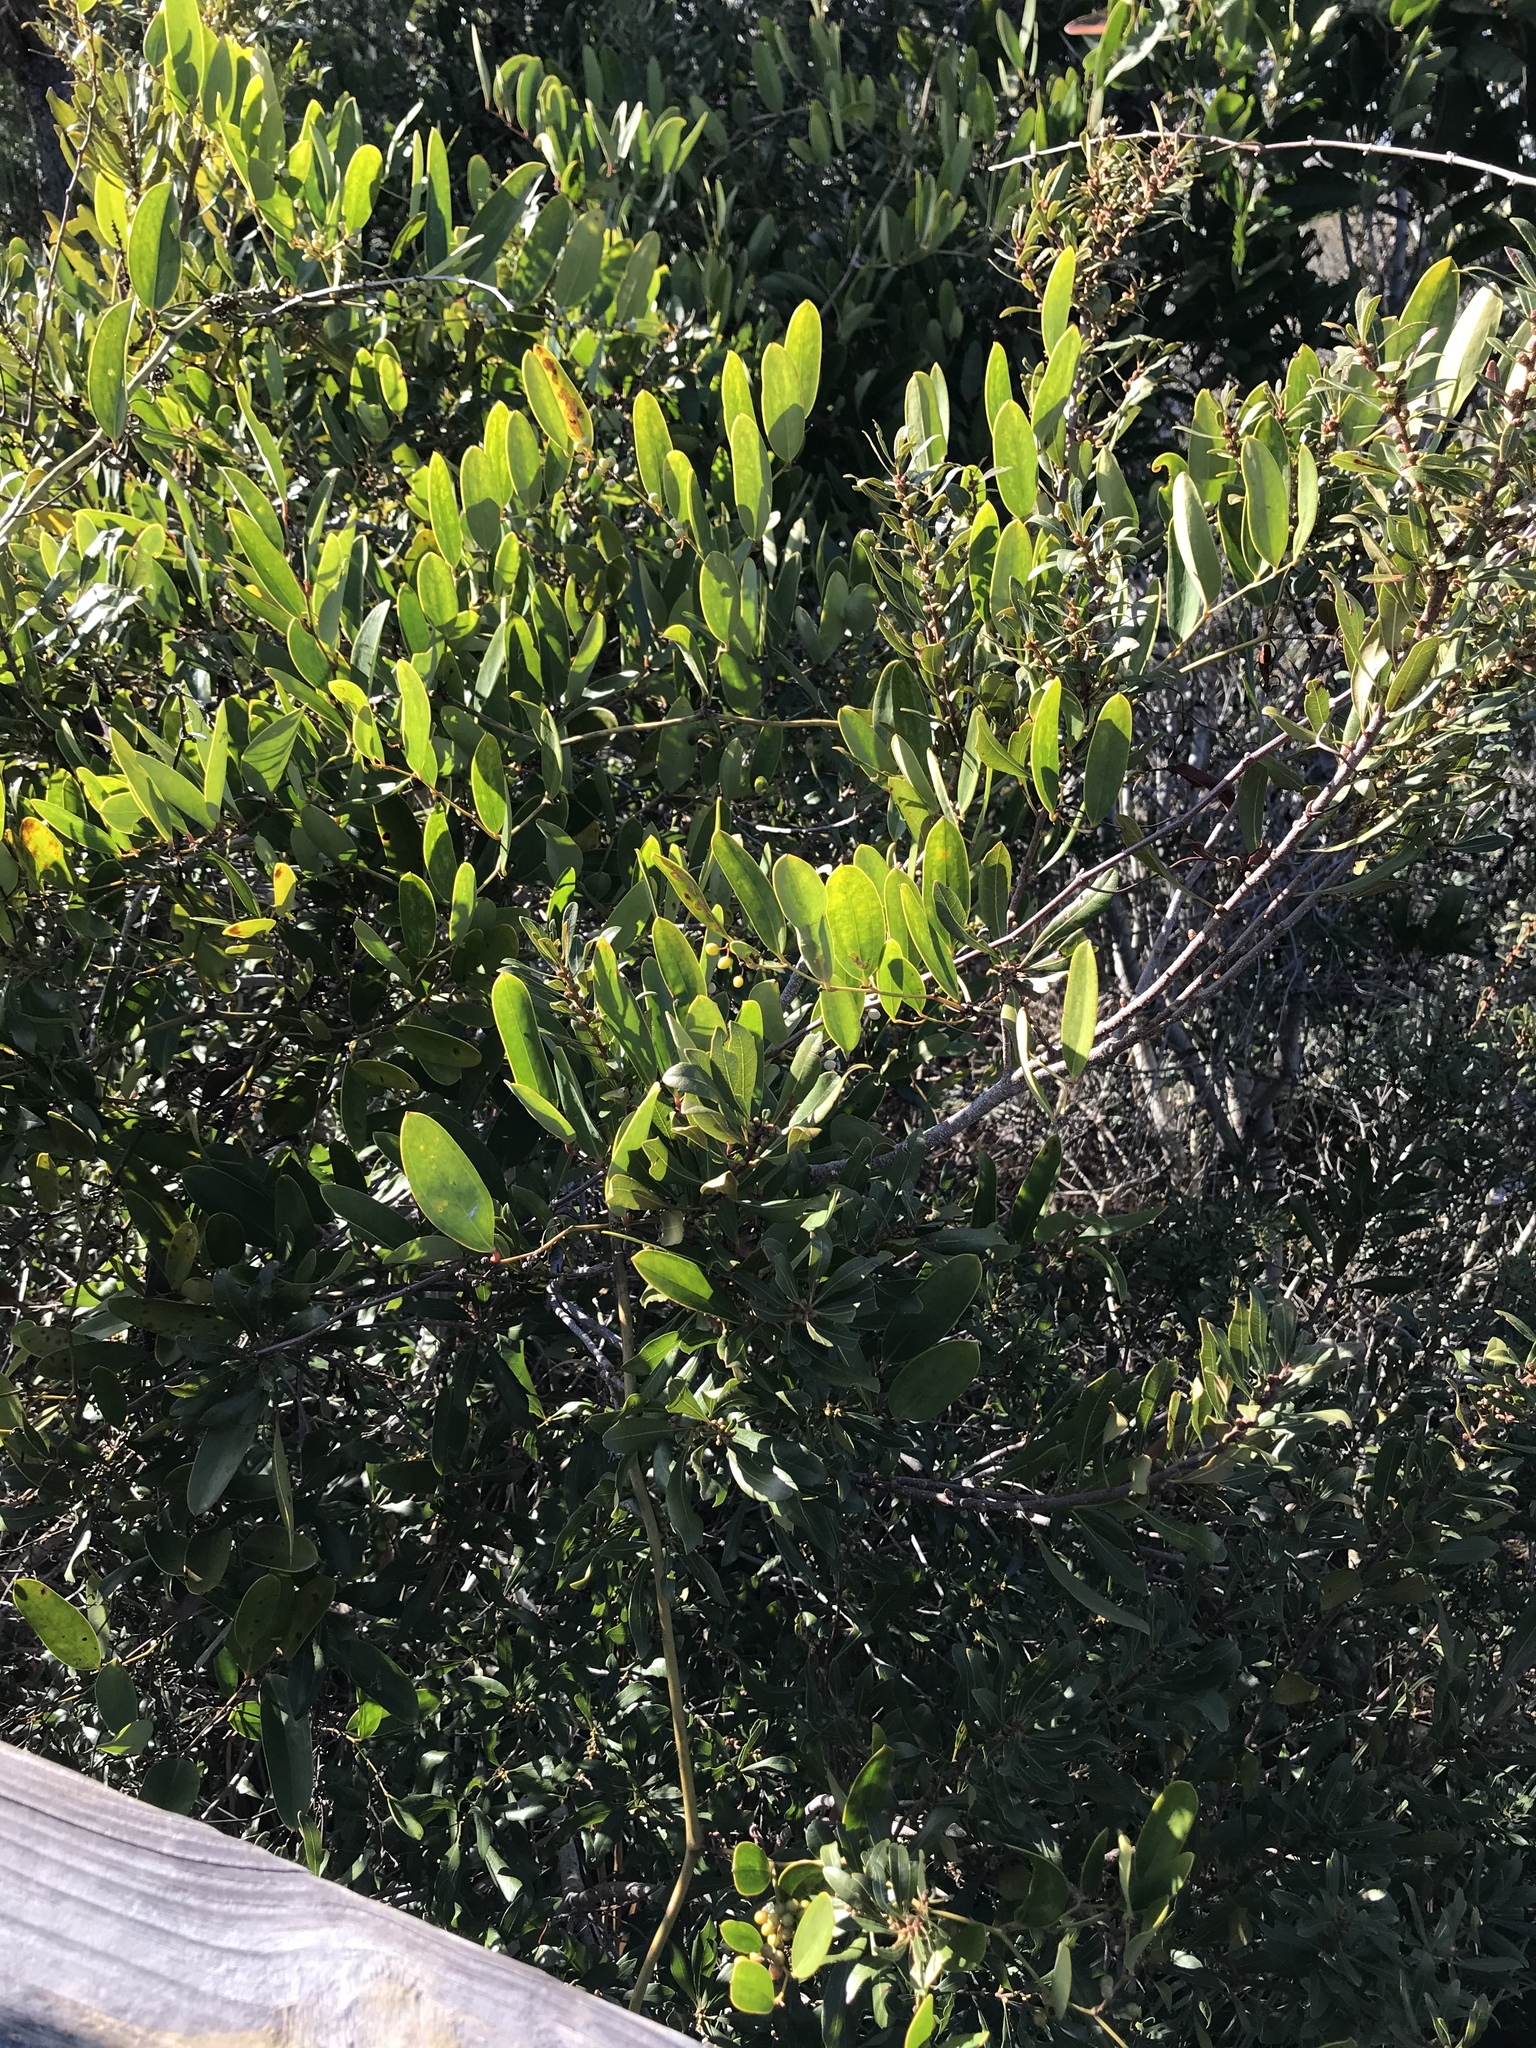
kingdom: Plantae
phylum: Tracheophyta
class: Liliopsida
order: Liliales
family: Smilacaceae
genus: Smilax
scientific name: Smilax laurifolia
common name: Bamboovine
